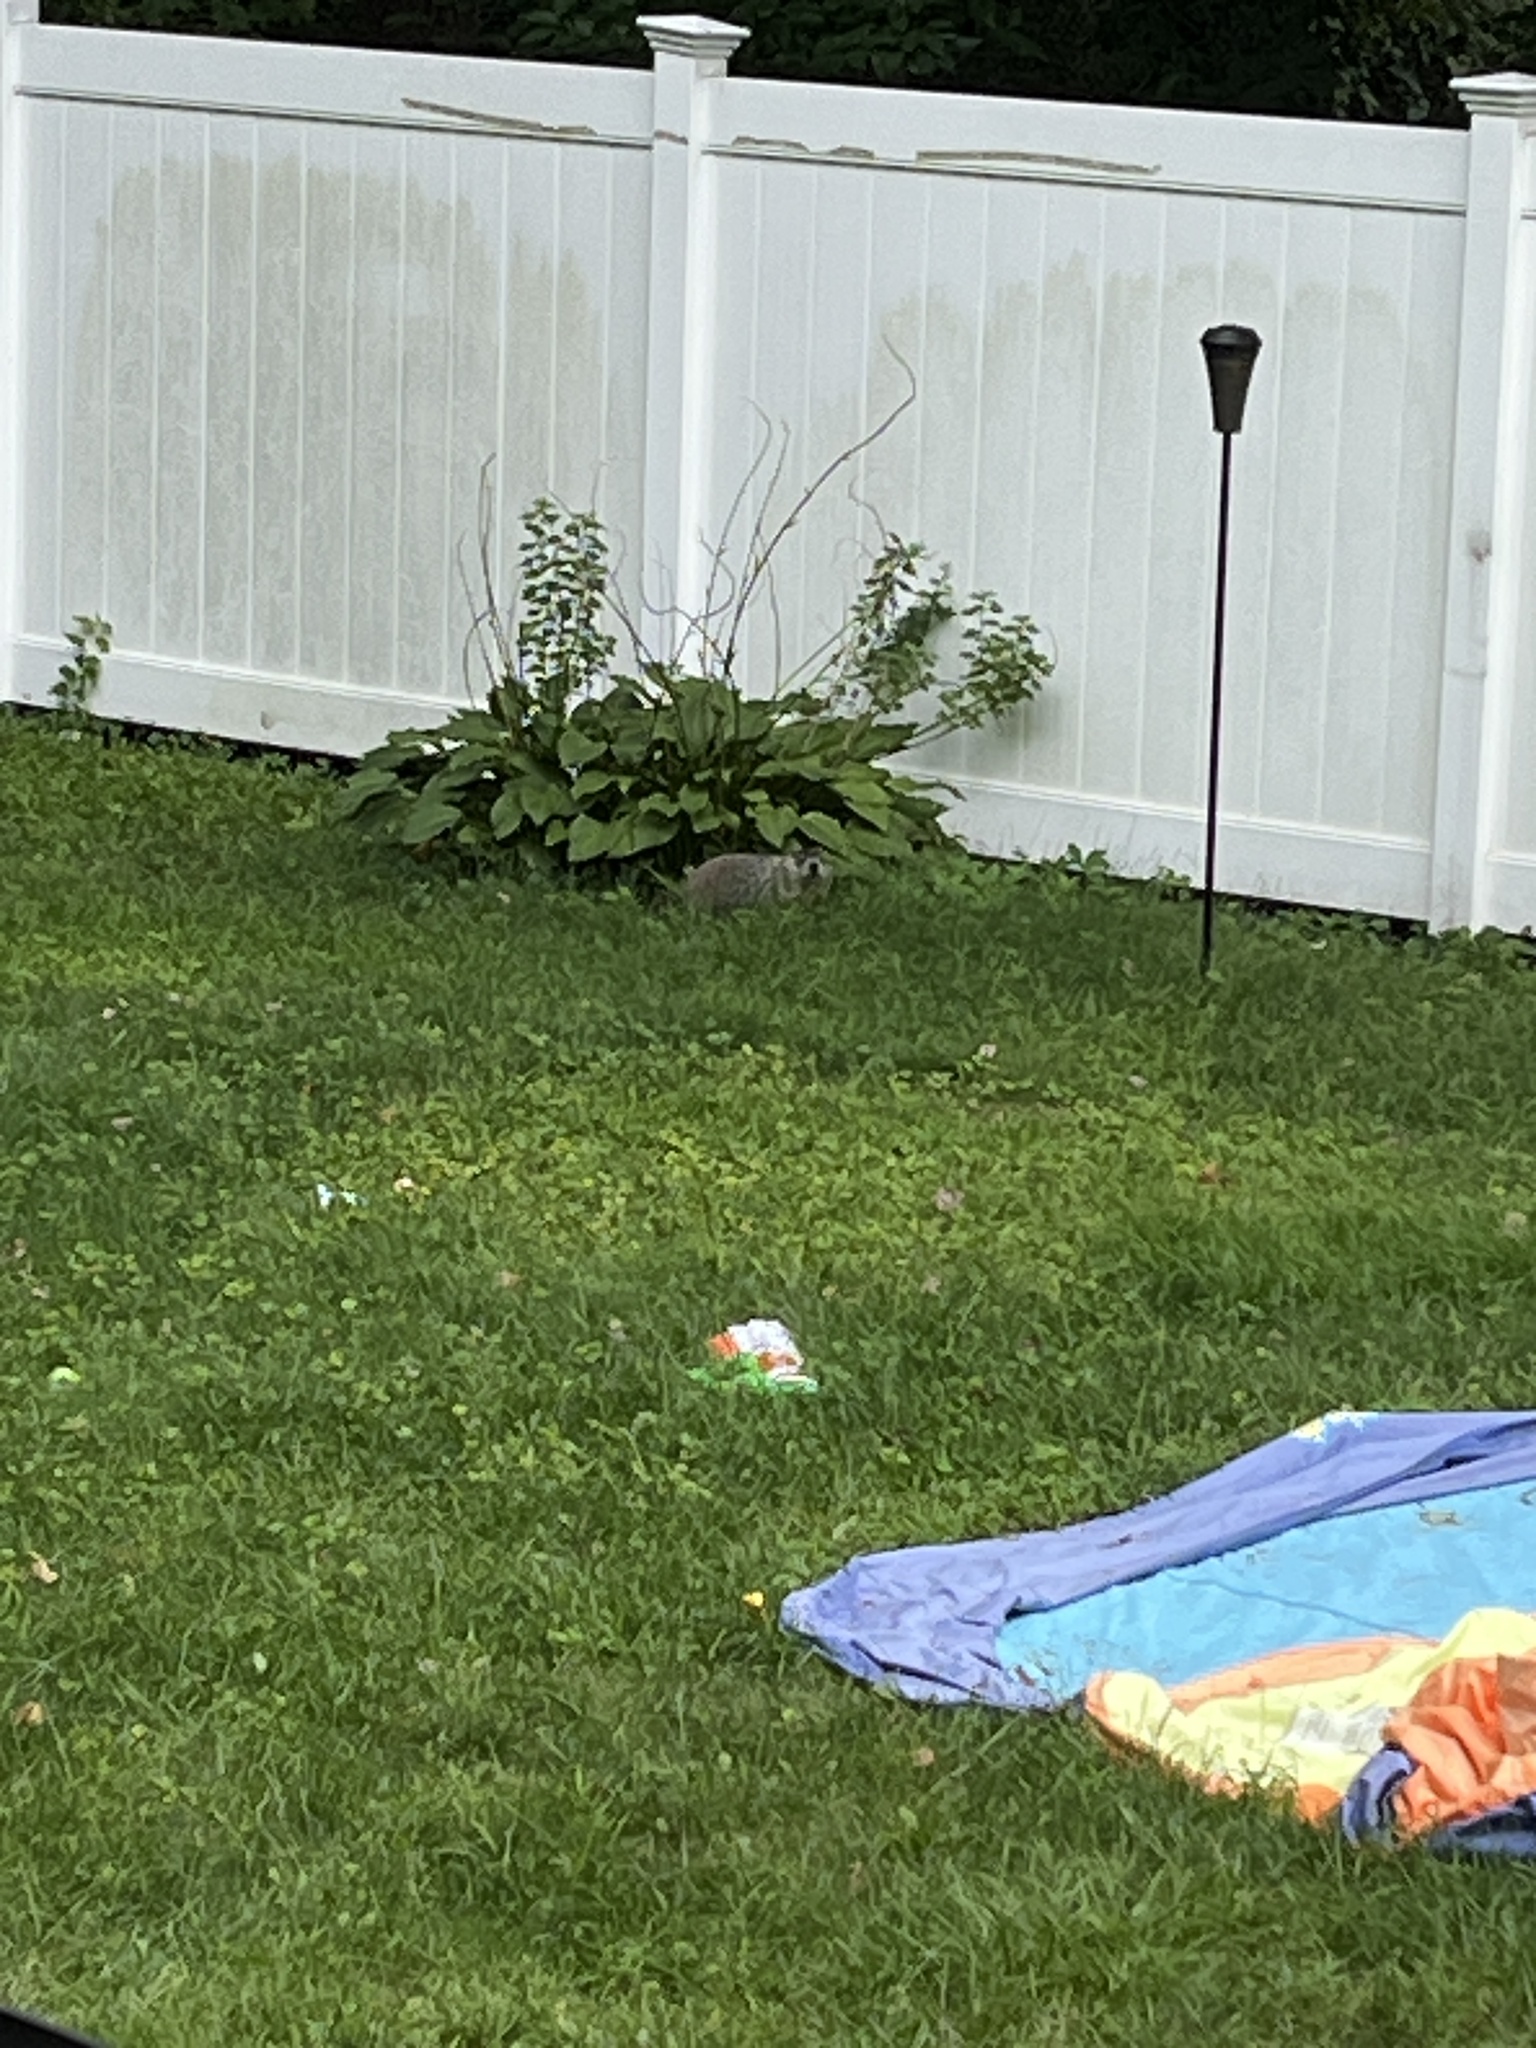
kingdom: Animalia
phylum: Chordata
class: Mammalia
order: Rodentia
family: Sciuridae
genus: Marmota
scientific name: Marmota monax
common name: Groundhog
